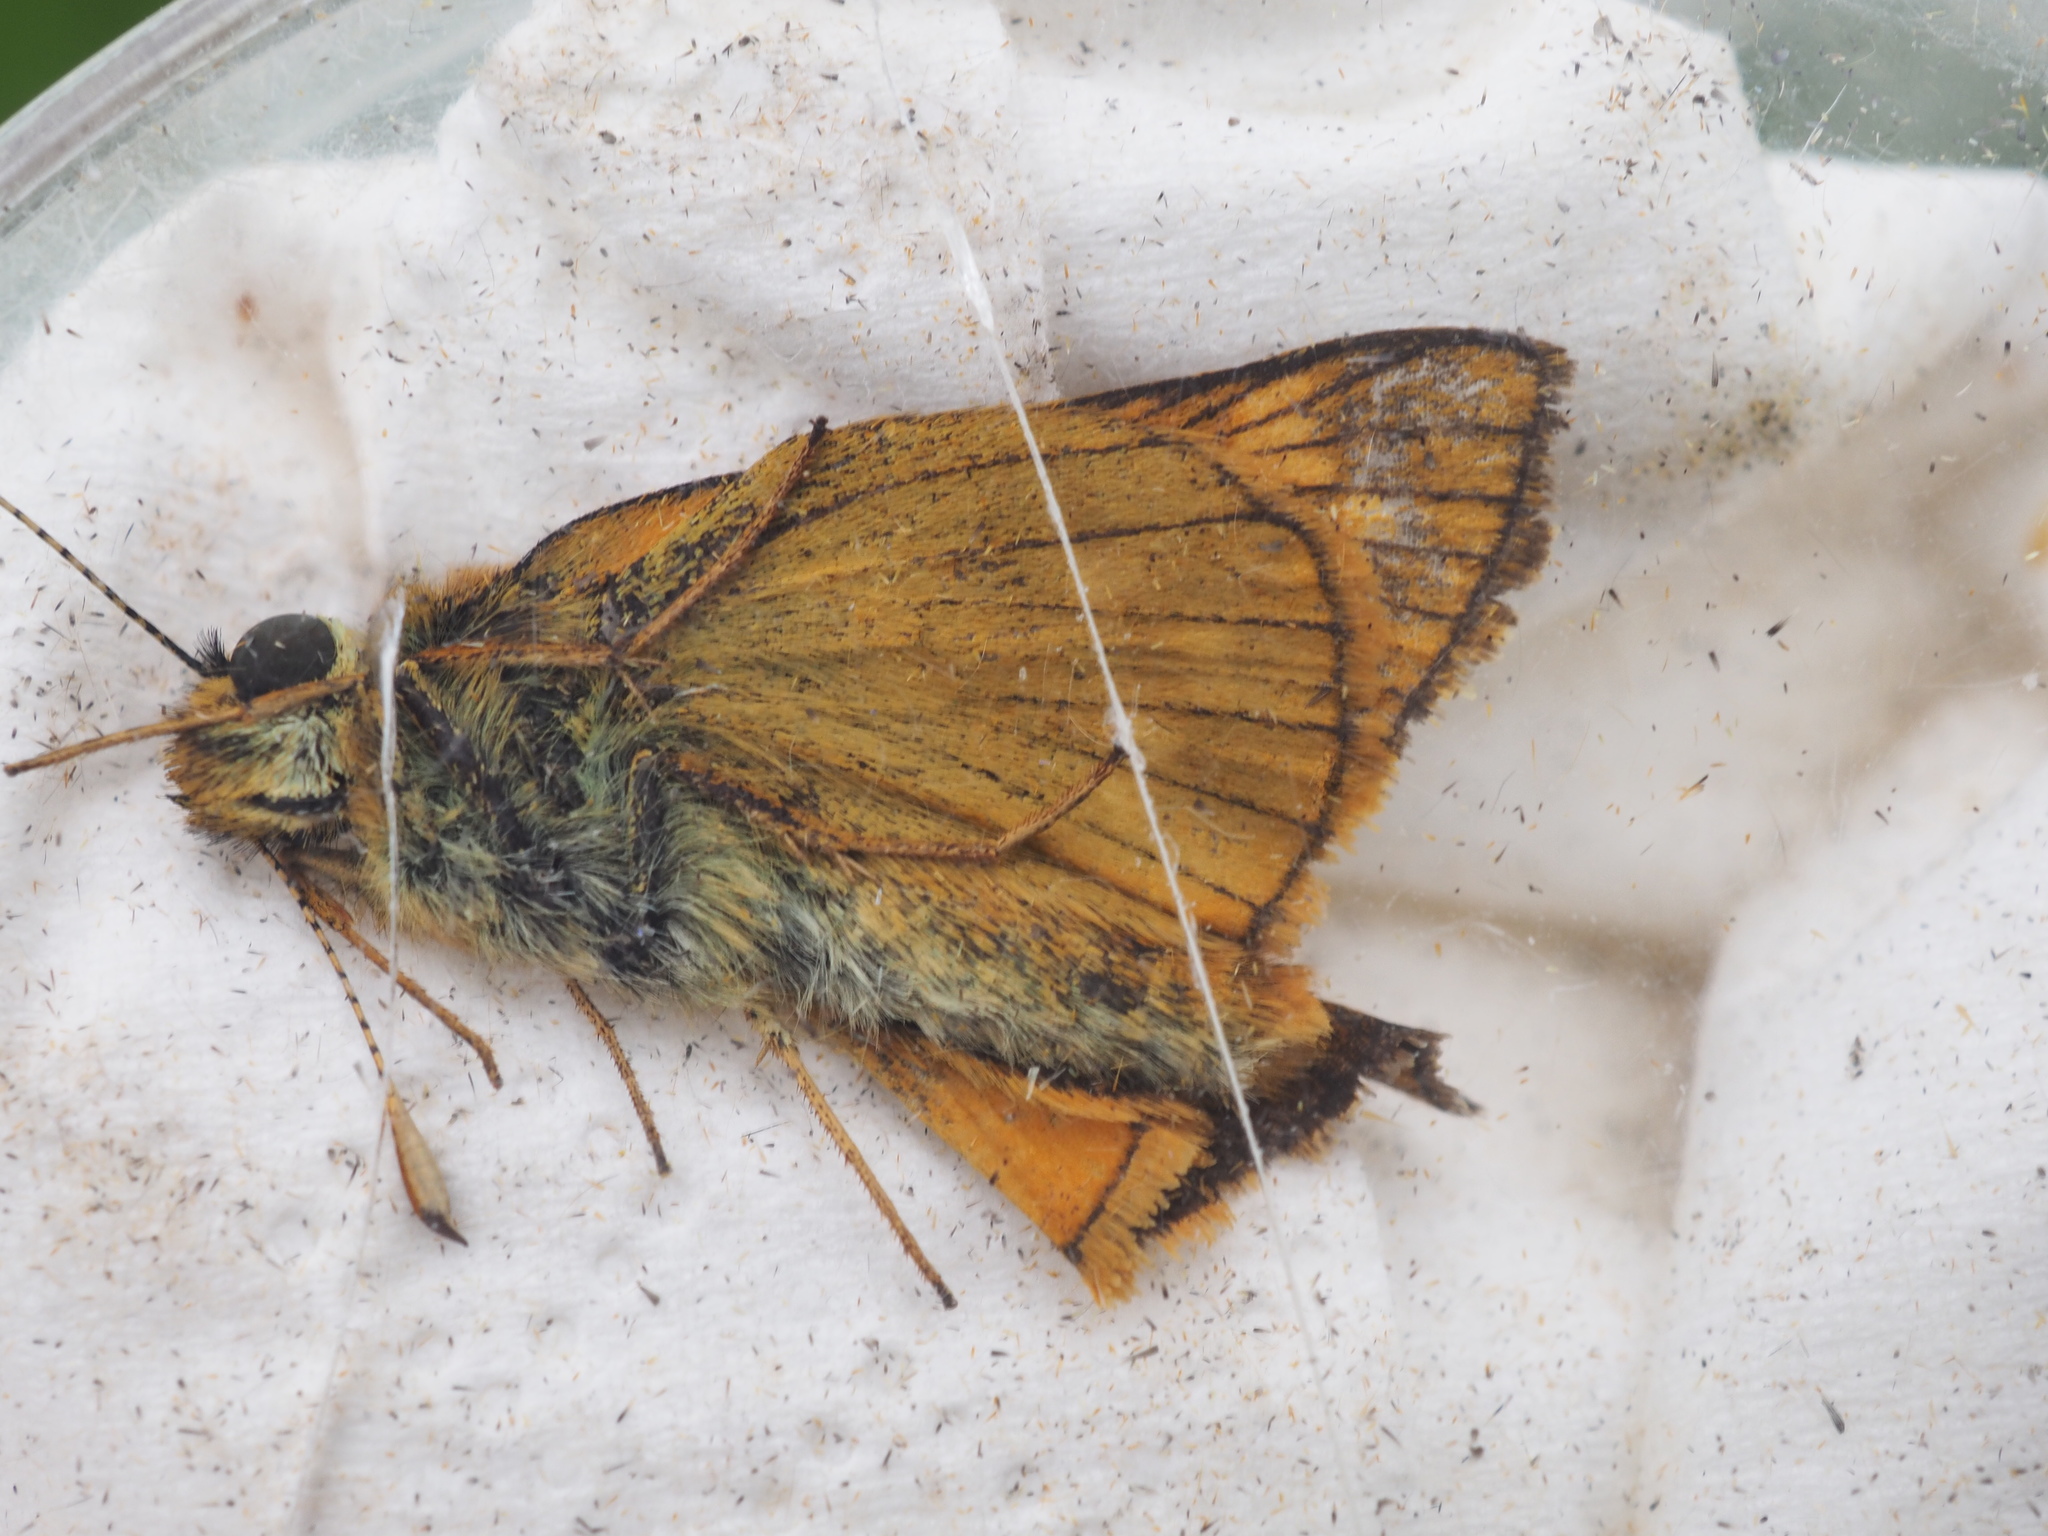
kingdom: Animalia
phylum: Arthropoda
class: Insecta
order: Lepidoptera
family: Hesperiidae
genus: Ochlodes
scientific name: Ochlodes venata
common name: Large skipper
